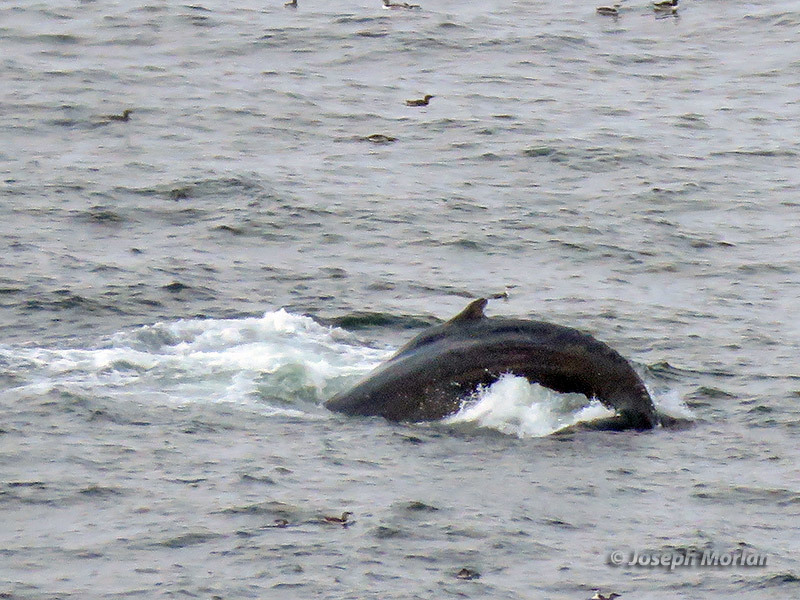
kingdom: Animalia
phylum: Chordata
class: Mammalia
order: Cetacea
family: Balaenopteridae
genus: Megaptera
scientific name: Megaptera novaeangliae
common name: Humpback whale
